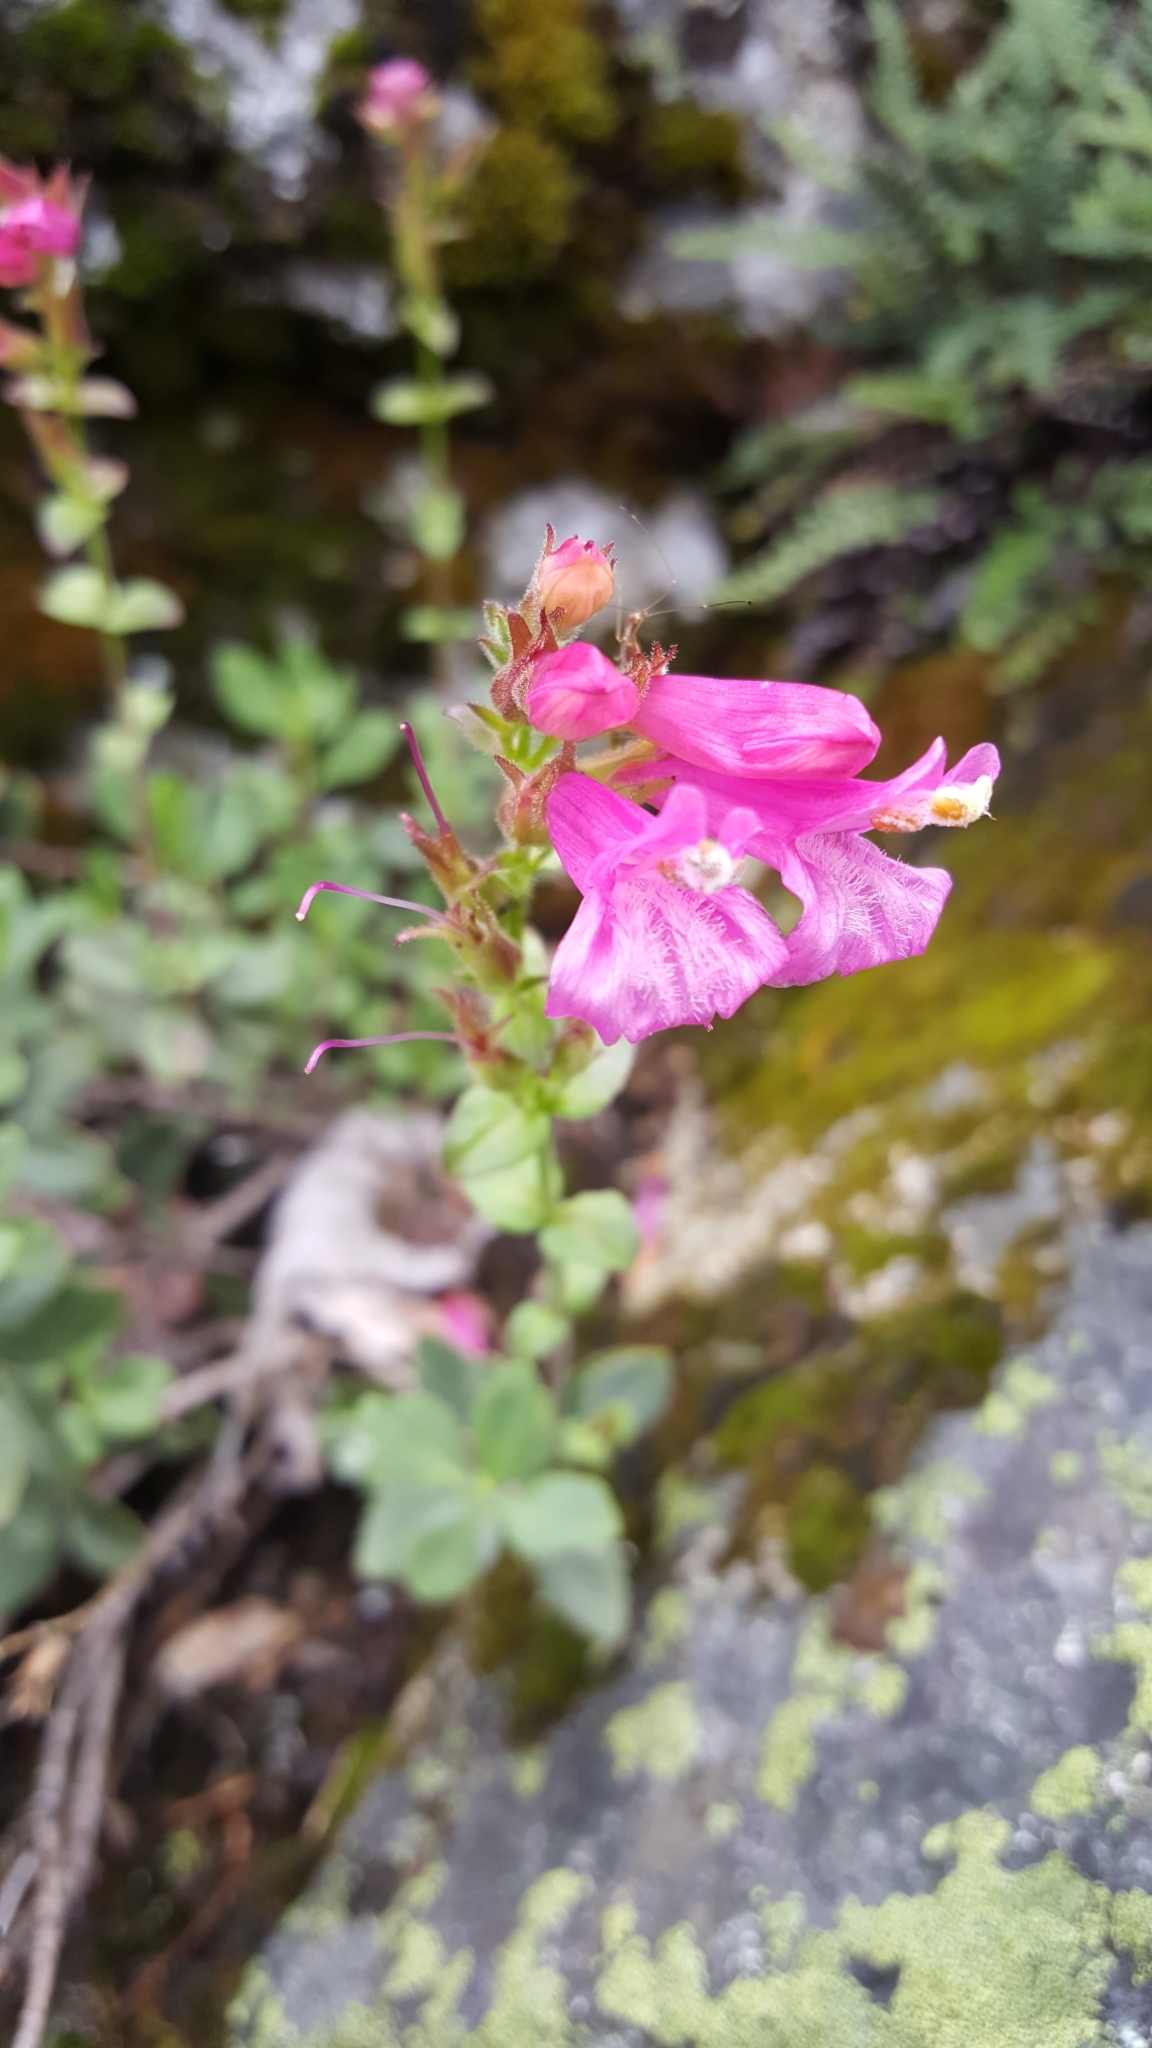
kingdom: Plantae
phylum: Tracheophyta
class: Magnoliopsida
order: Lamiales
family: Plantaginaceae
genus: Penstemon
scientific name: Penstemon newberryi
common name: Mountain-pride
